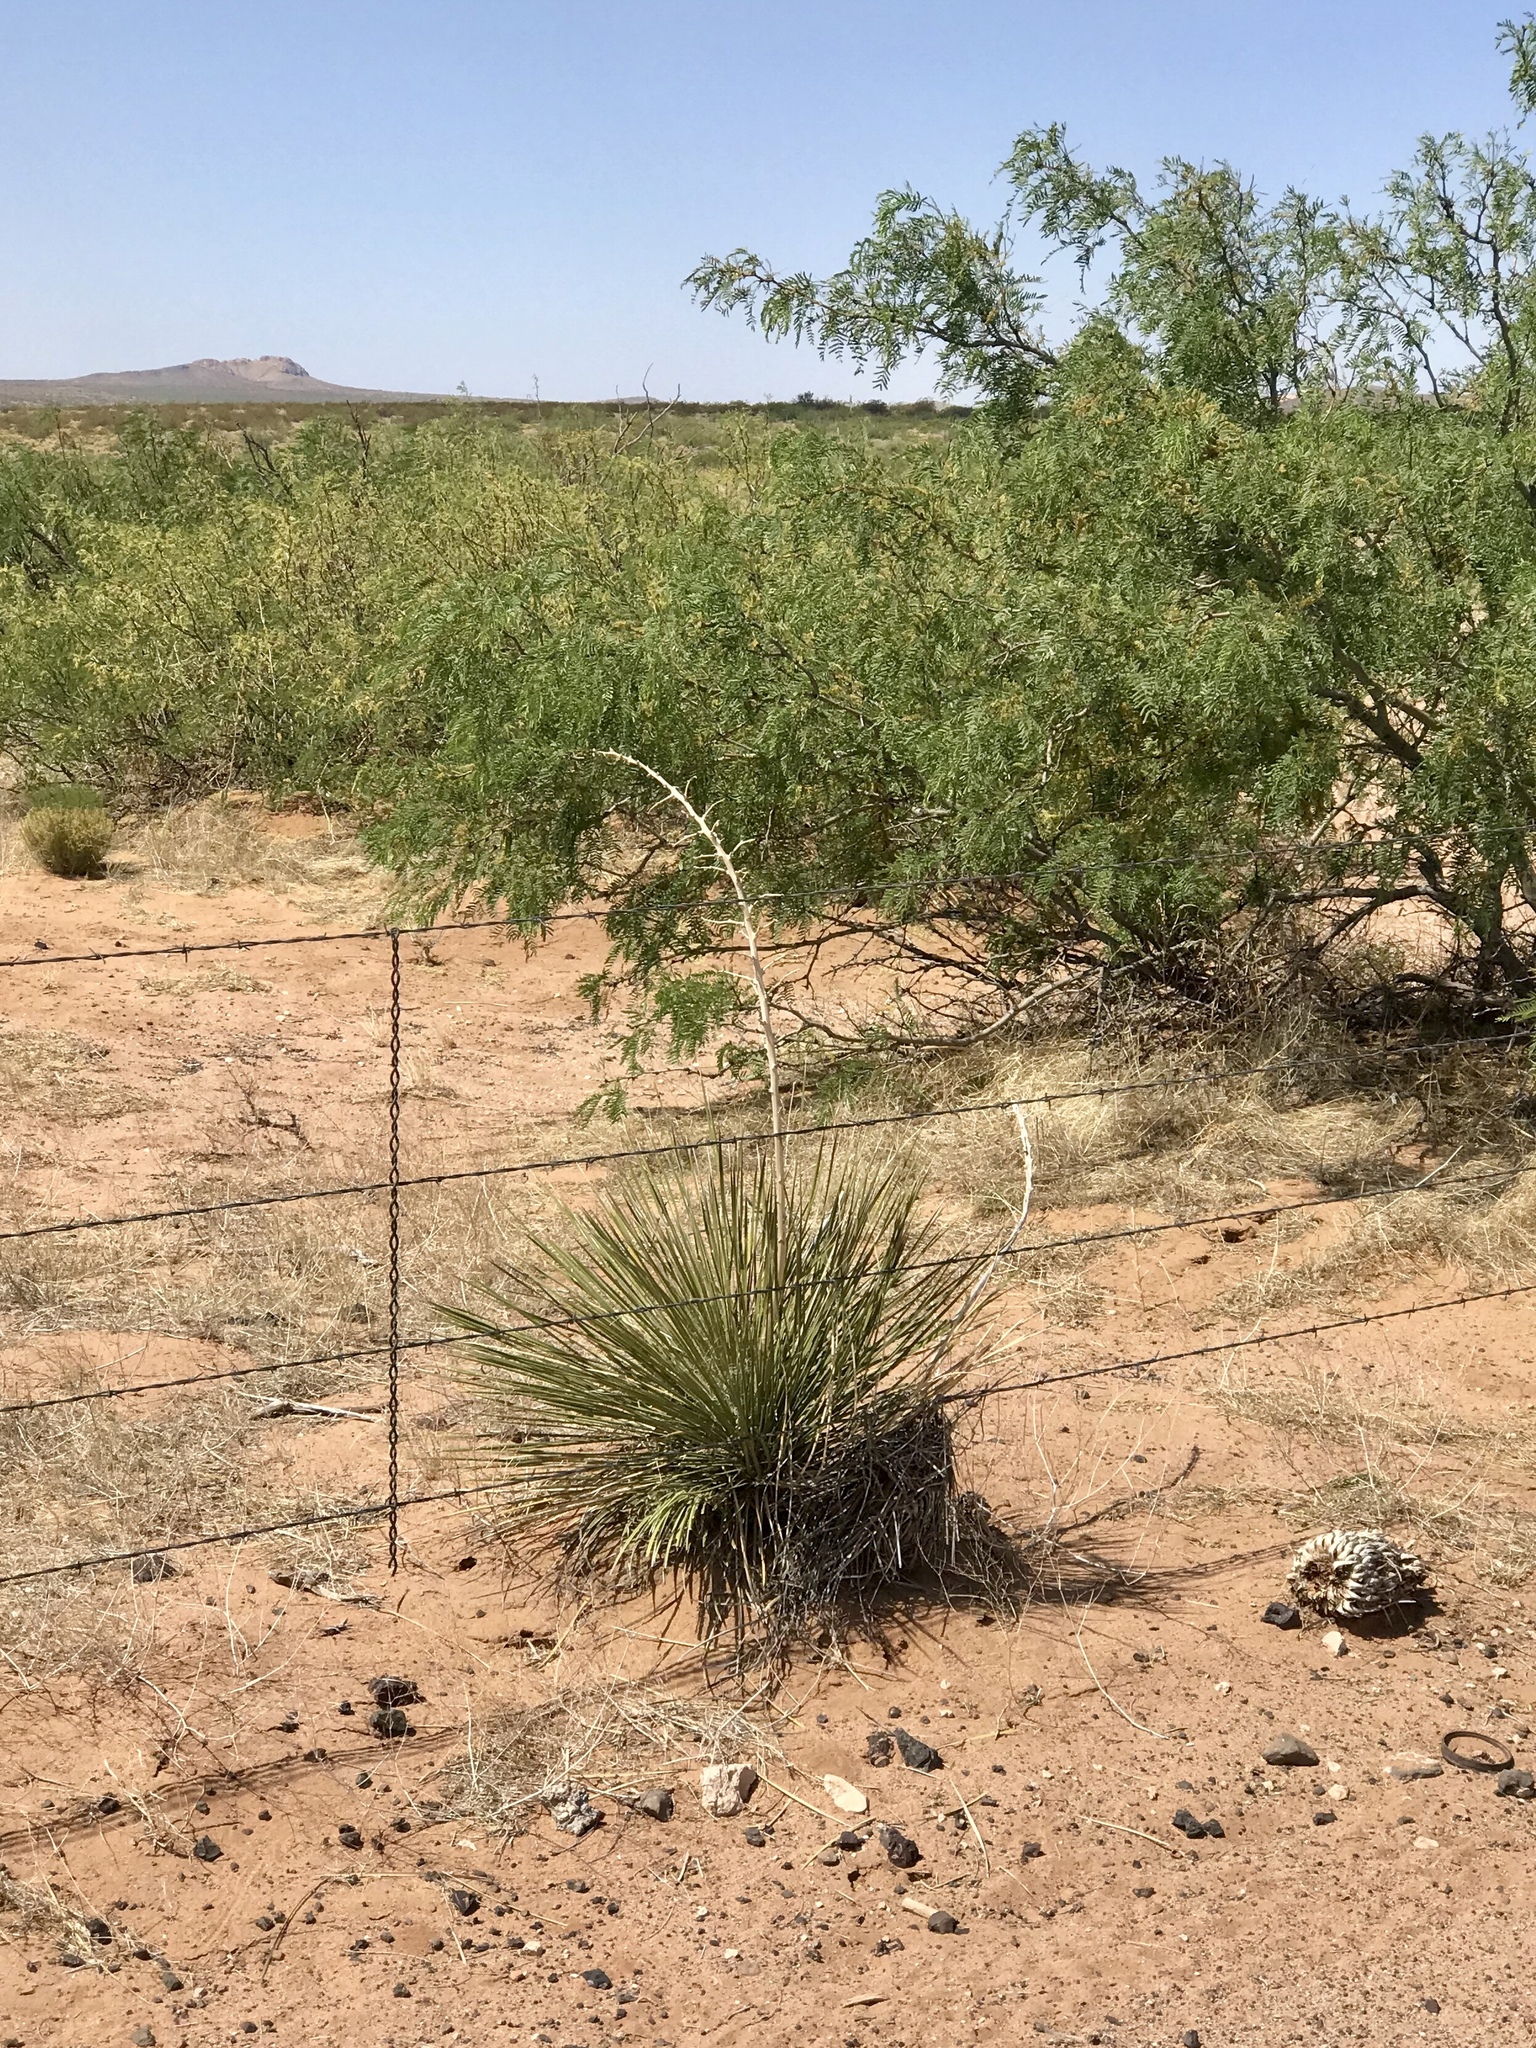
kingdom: Plantae
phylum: Tracheophyta
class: Liliopsida
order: Asparagales
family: Asparagaceae
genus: Yucca
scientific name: Yucca elata
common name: Palmella
